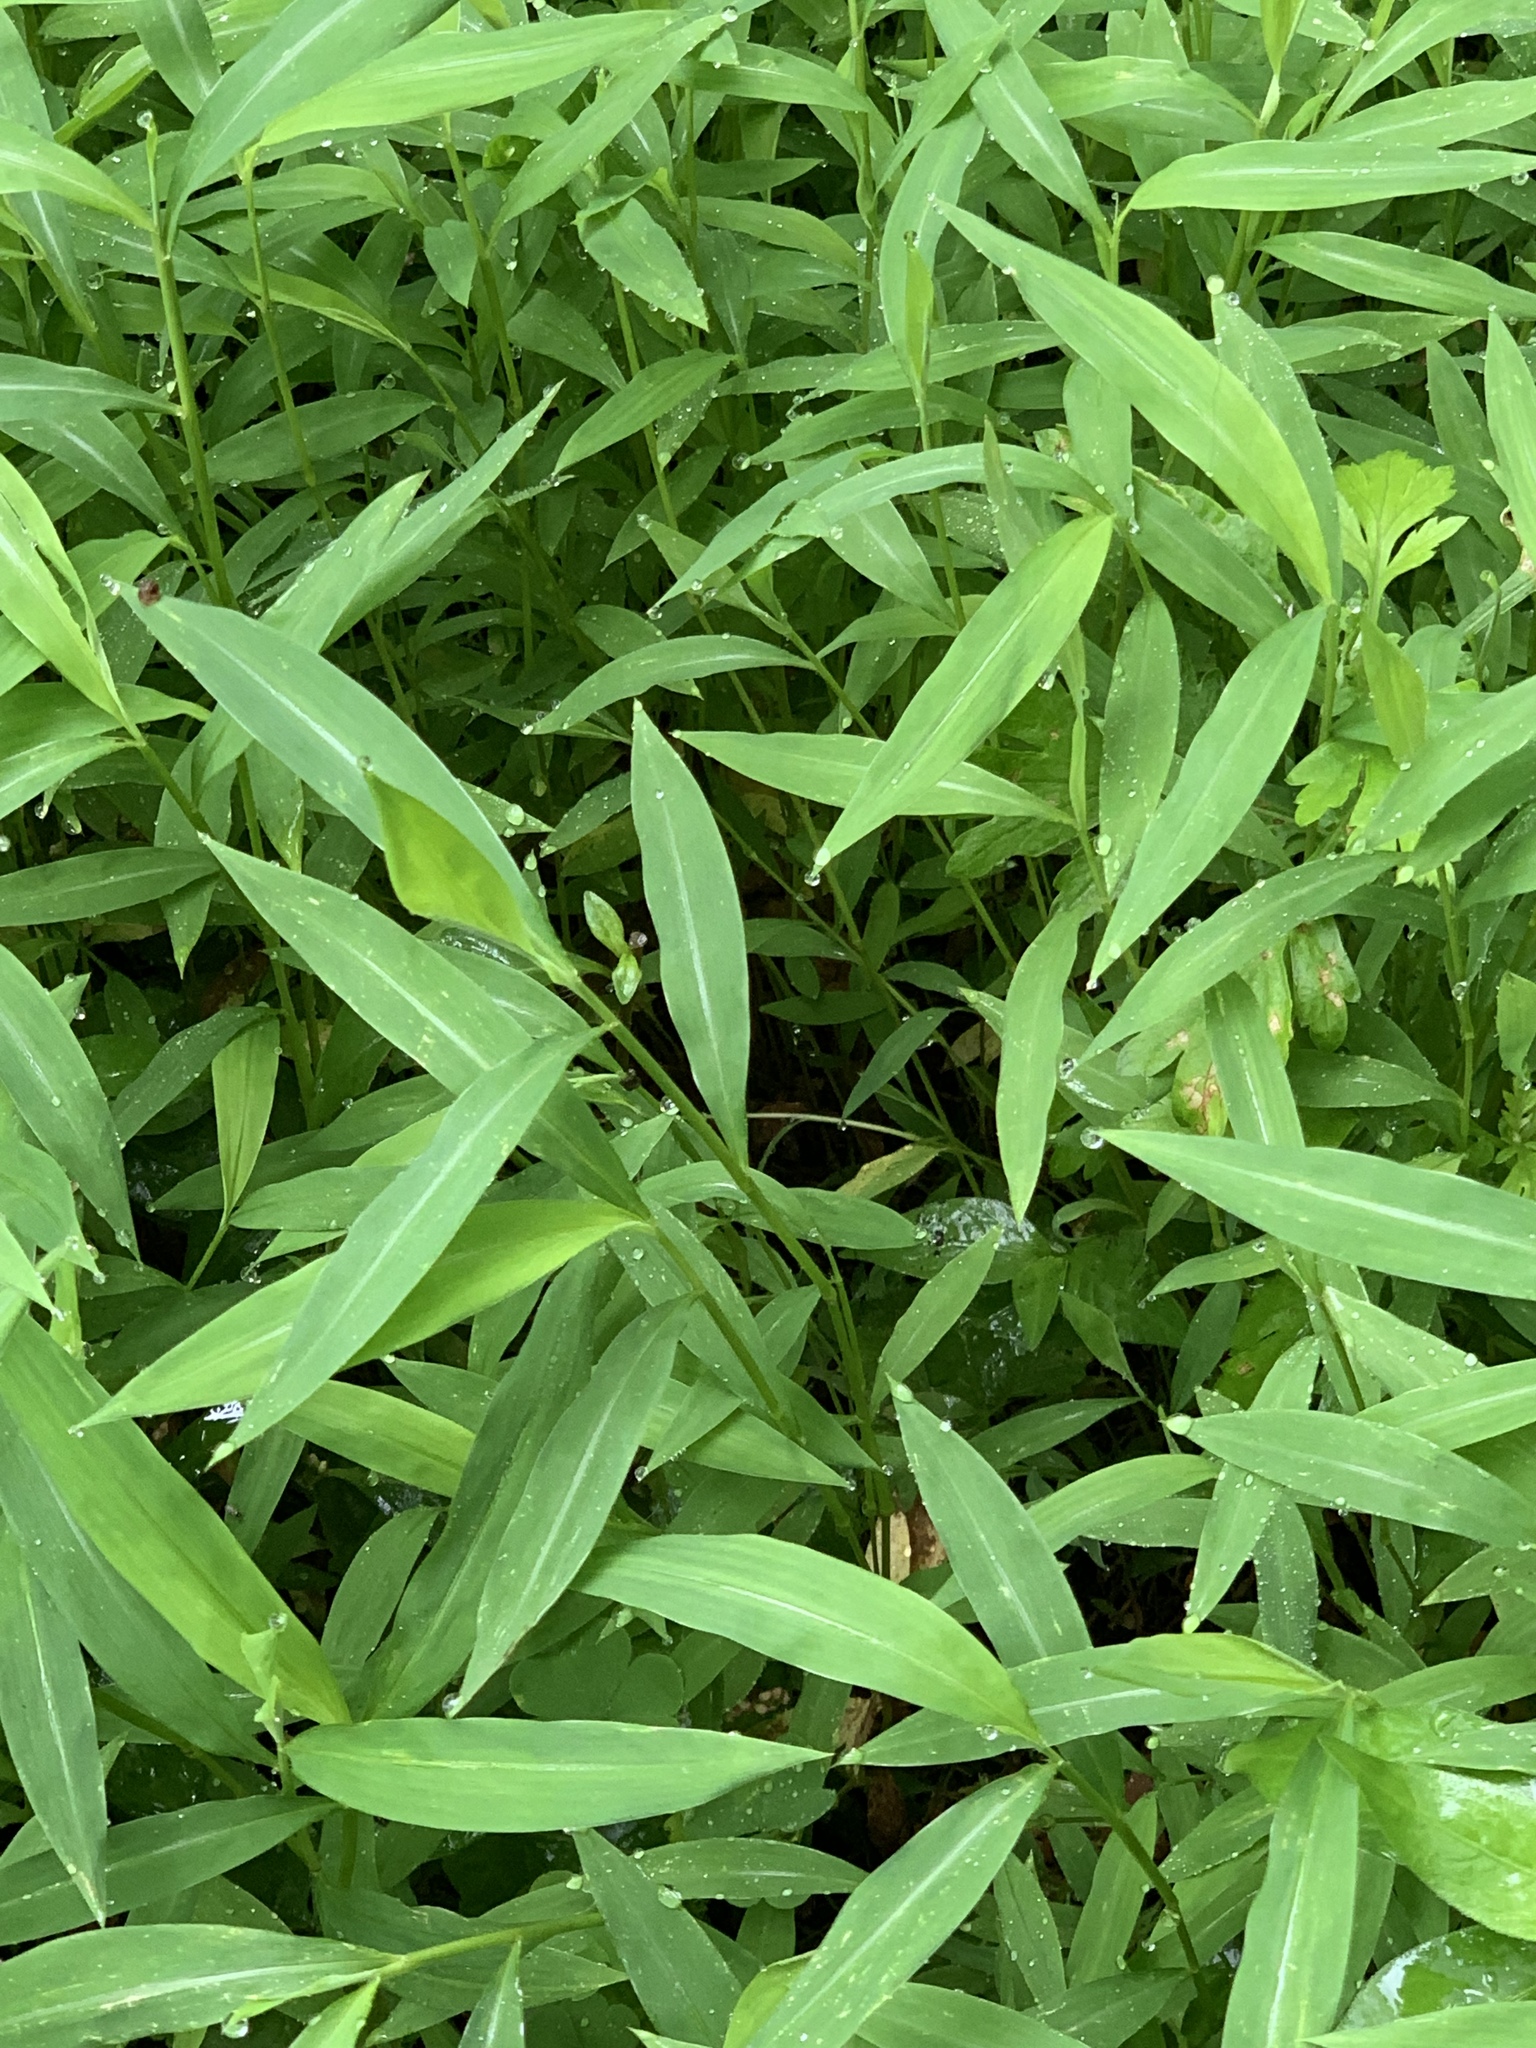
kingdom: Plantae
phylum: Tracheophyta
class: Liliopsida
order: Poales
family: Poaceae
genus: Microstegium
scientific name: Microstegium vimineum
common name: Japanese stiltgrass
